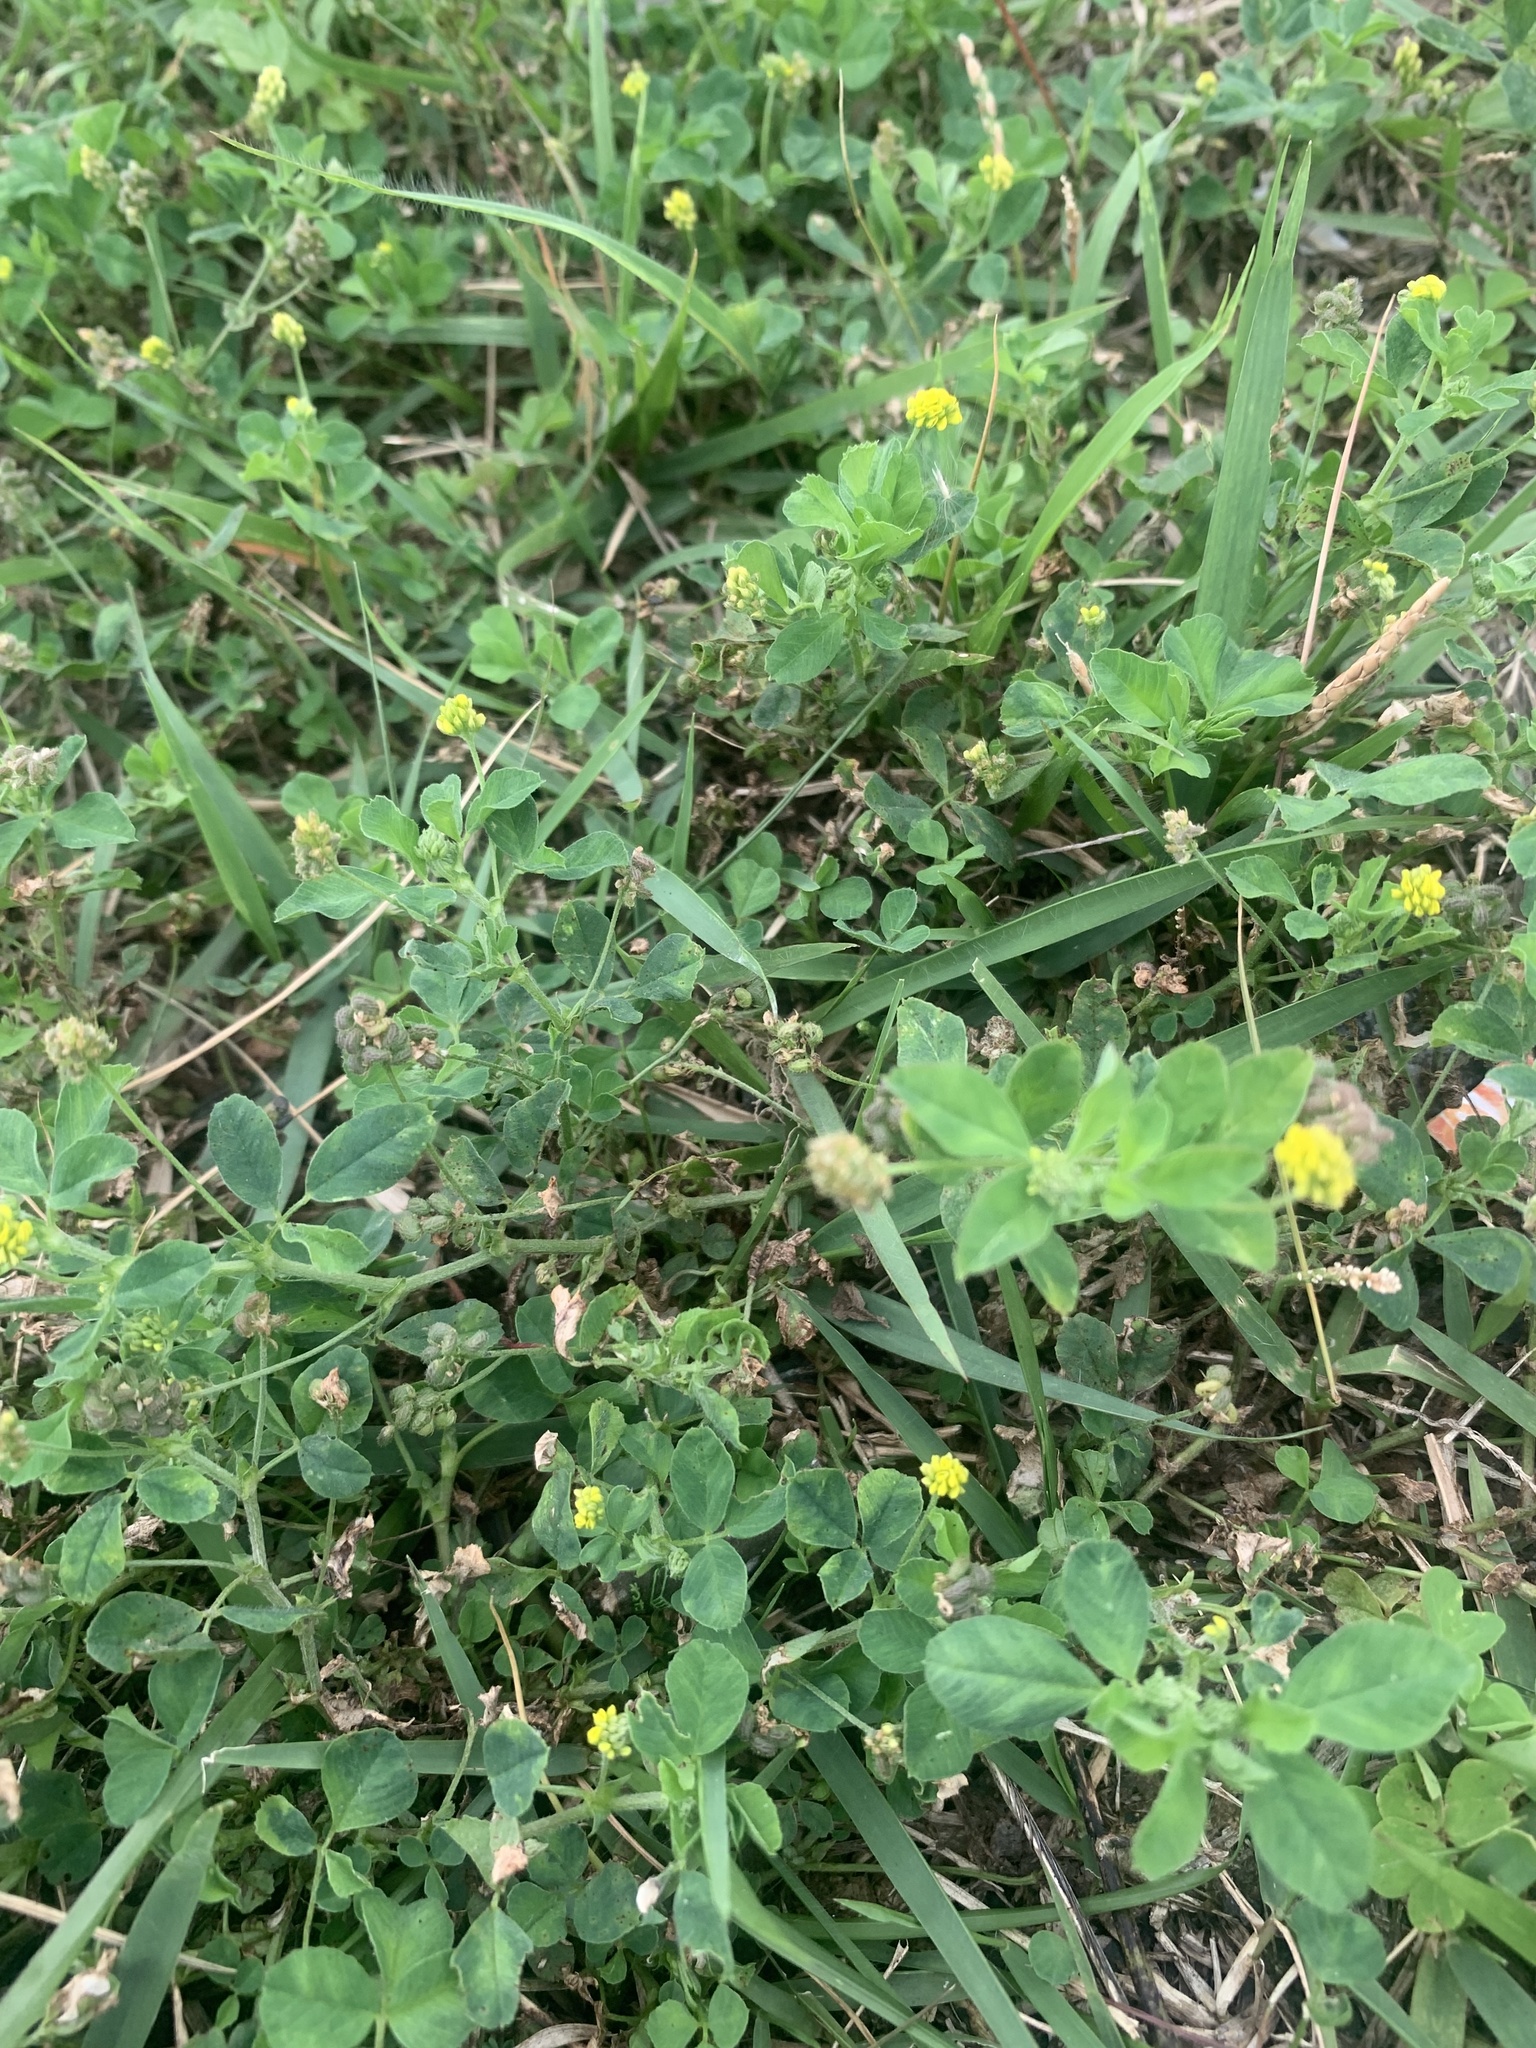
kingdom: Plantae
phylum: Tracheophyta
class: Magnoliopsida
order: Fabales
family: Fabaceae
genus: Medicago
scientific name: Medicago lupulina
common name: Black medick
